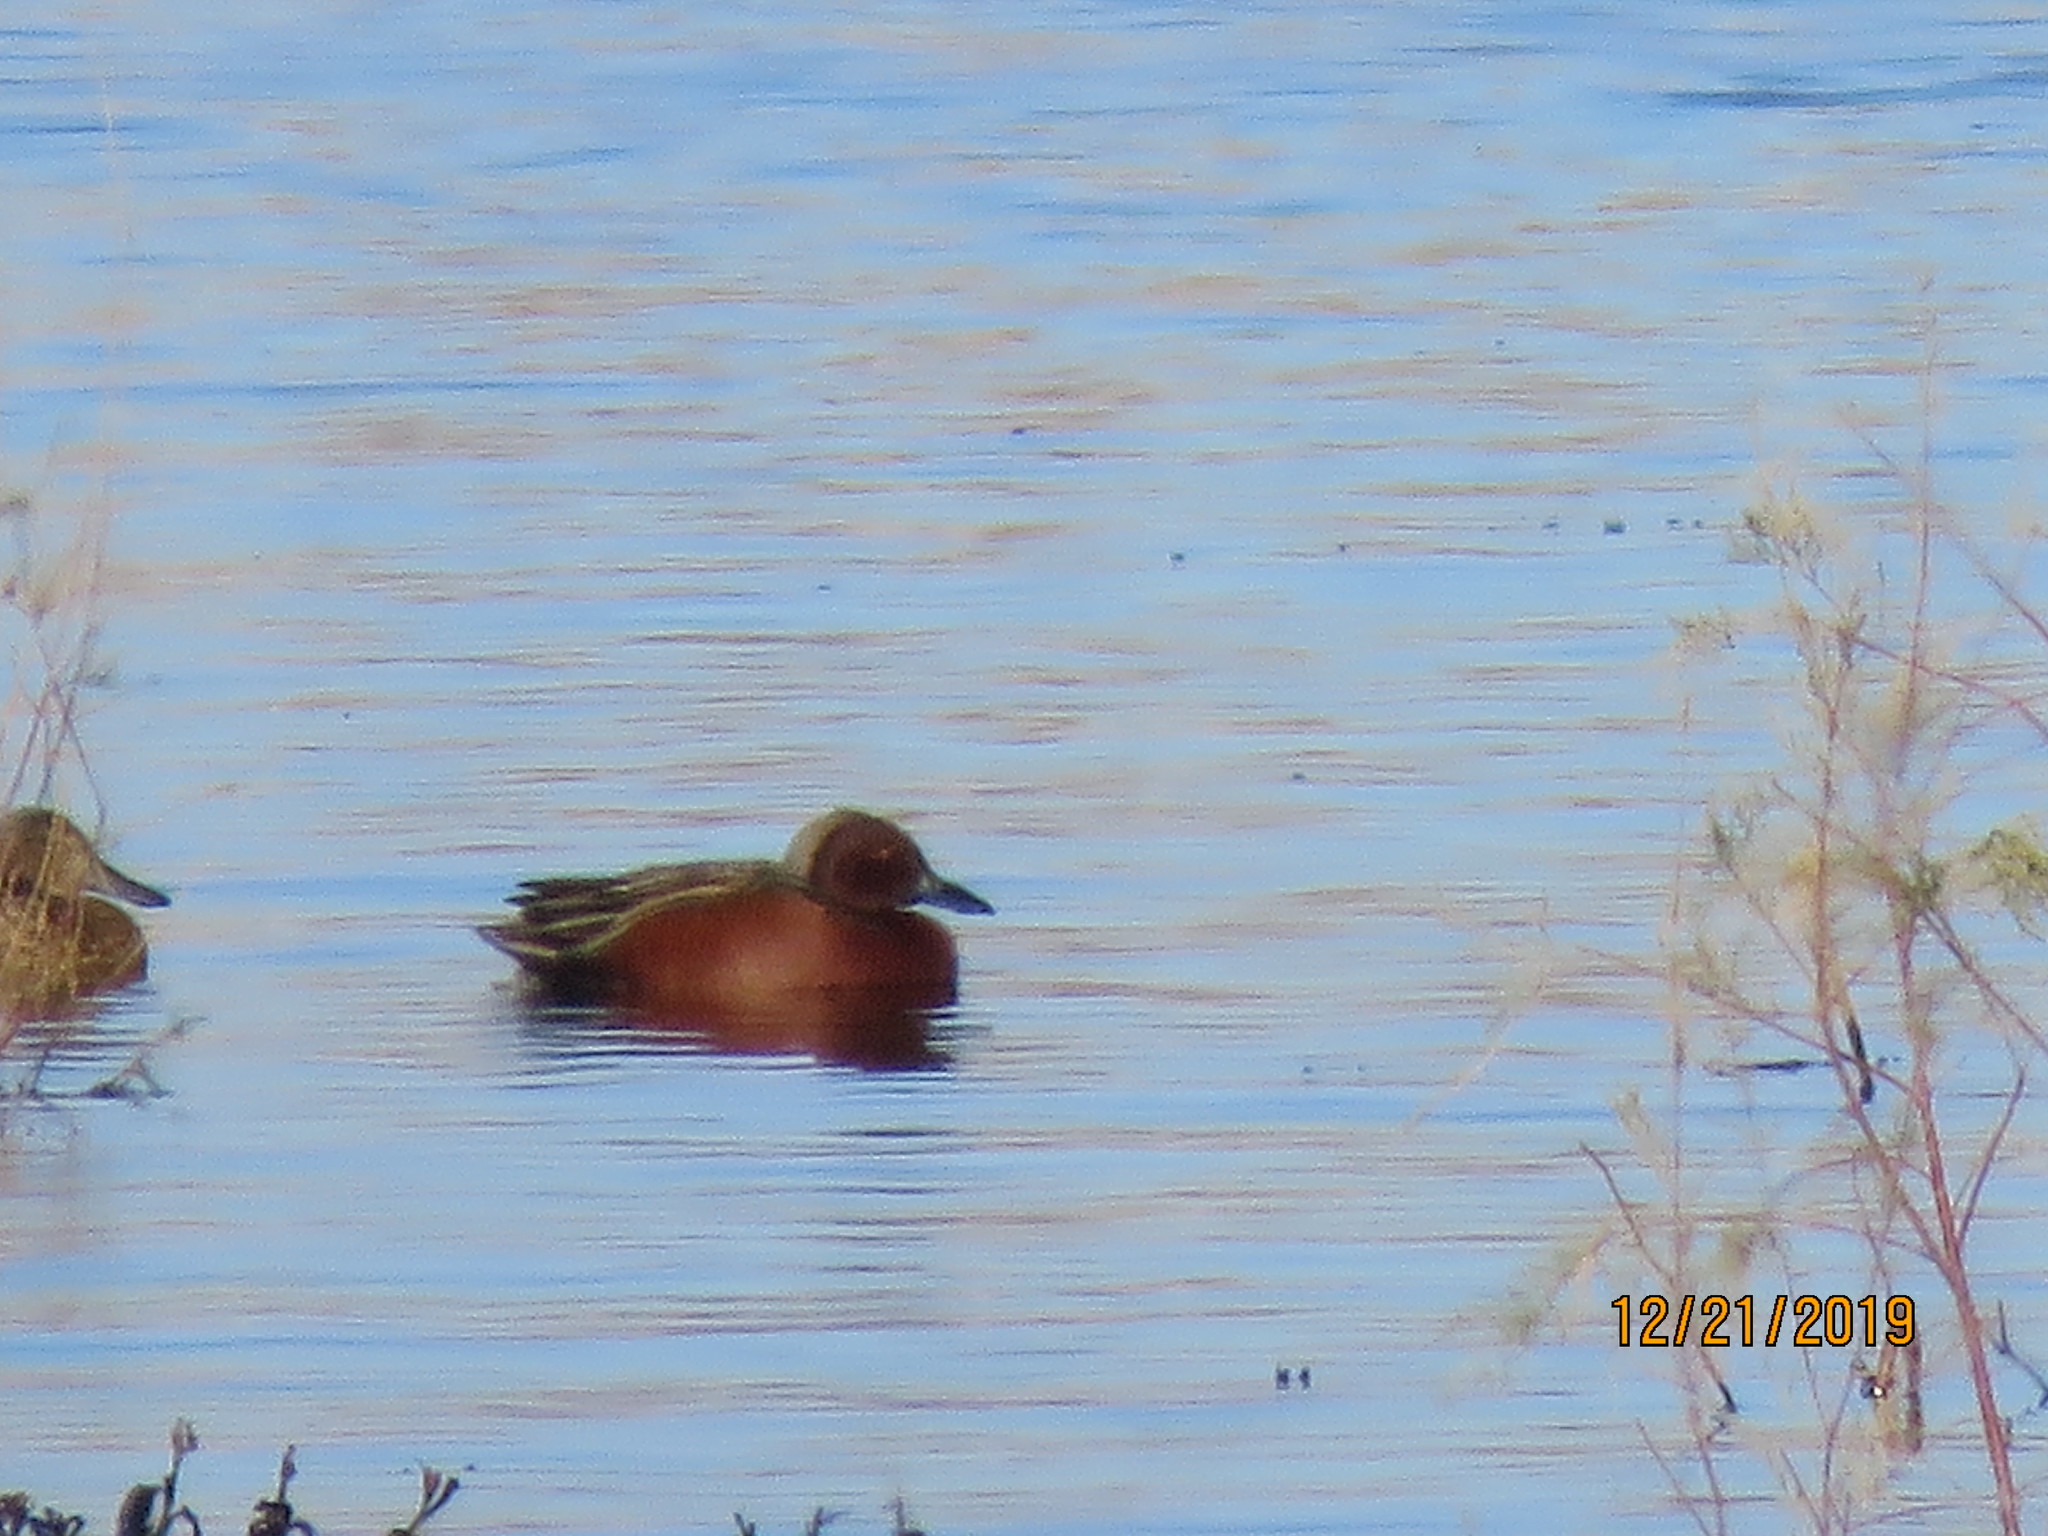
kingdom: Animalia
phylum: Chordata
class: Aves
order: Anseriformes
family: Anatidae
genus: Spatula
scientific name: Spatula cyanoptera
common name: Cinnamon teal
